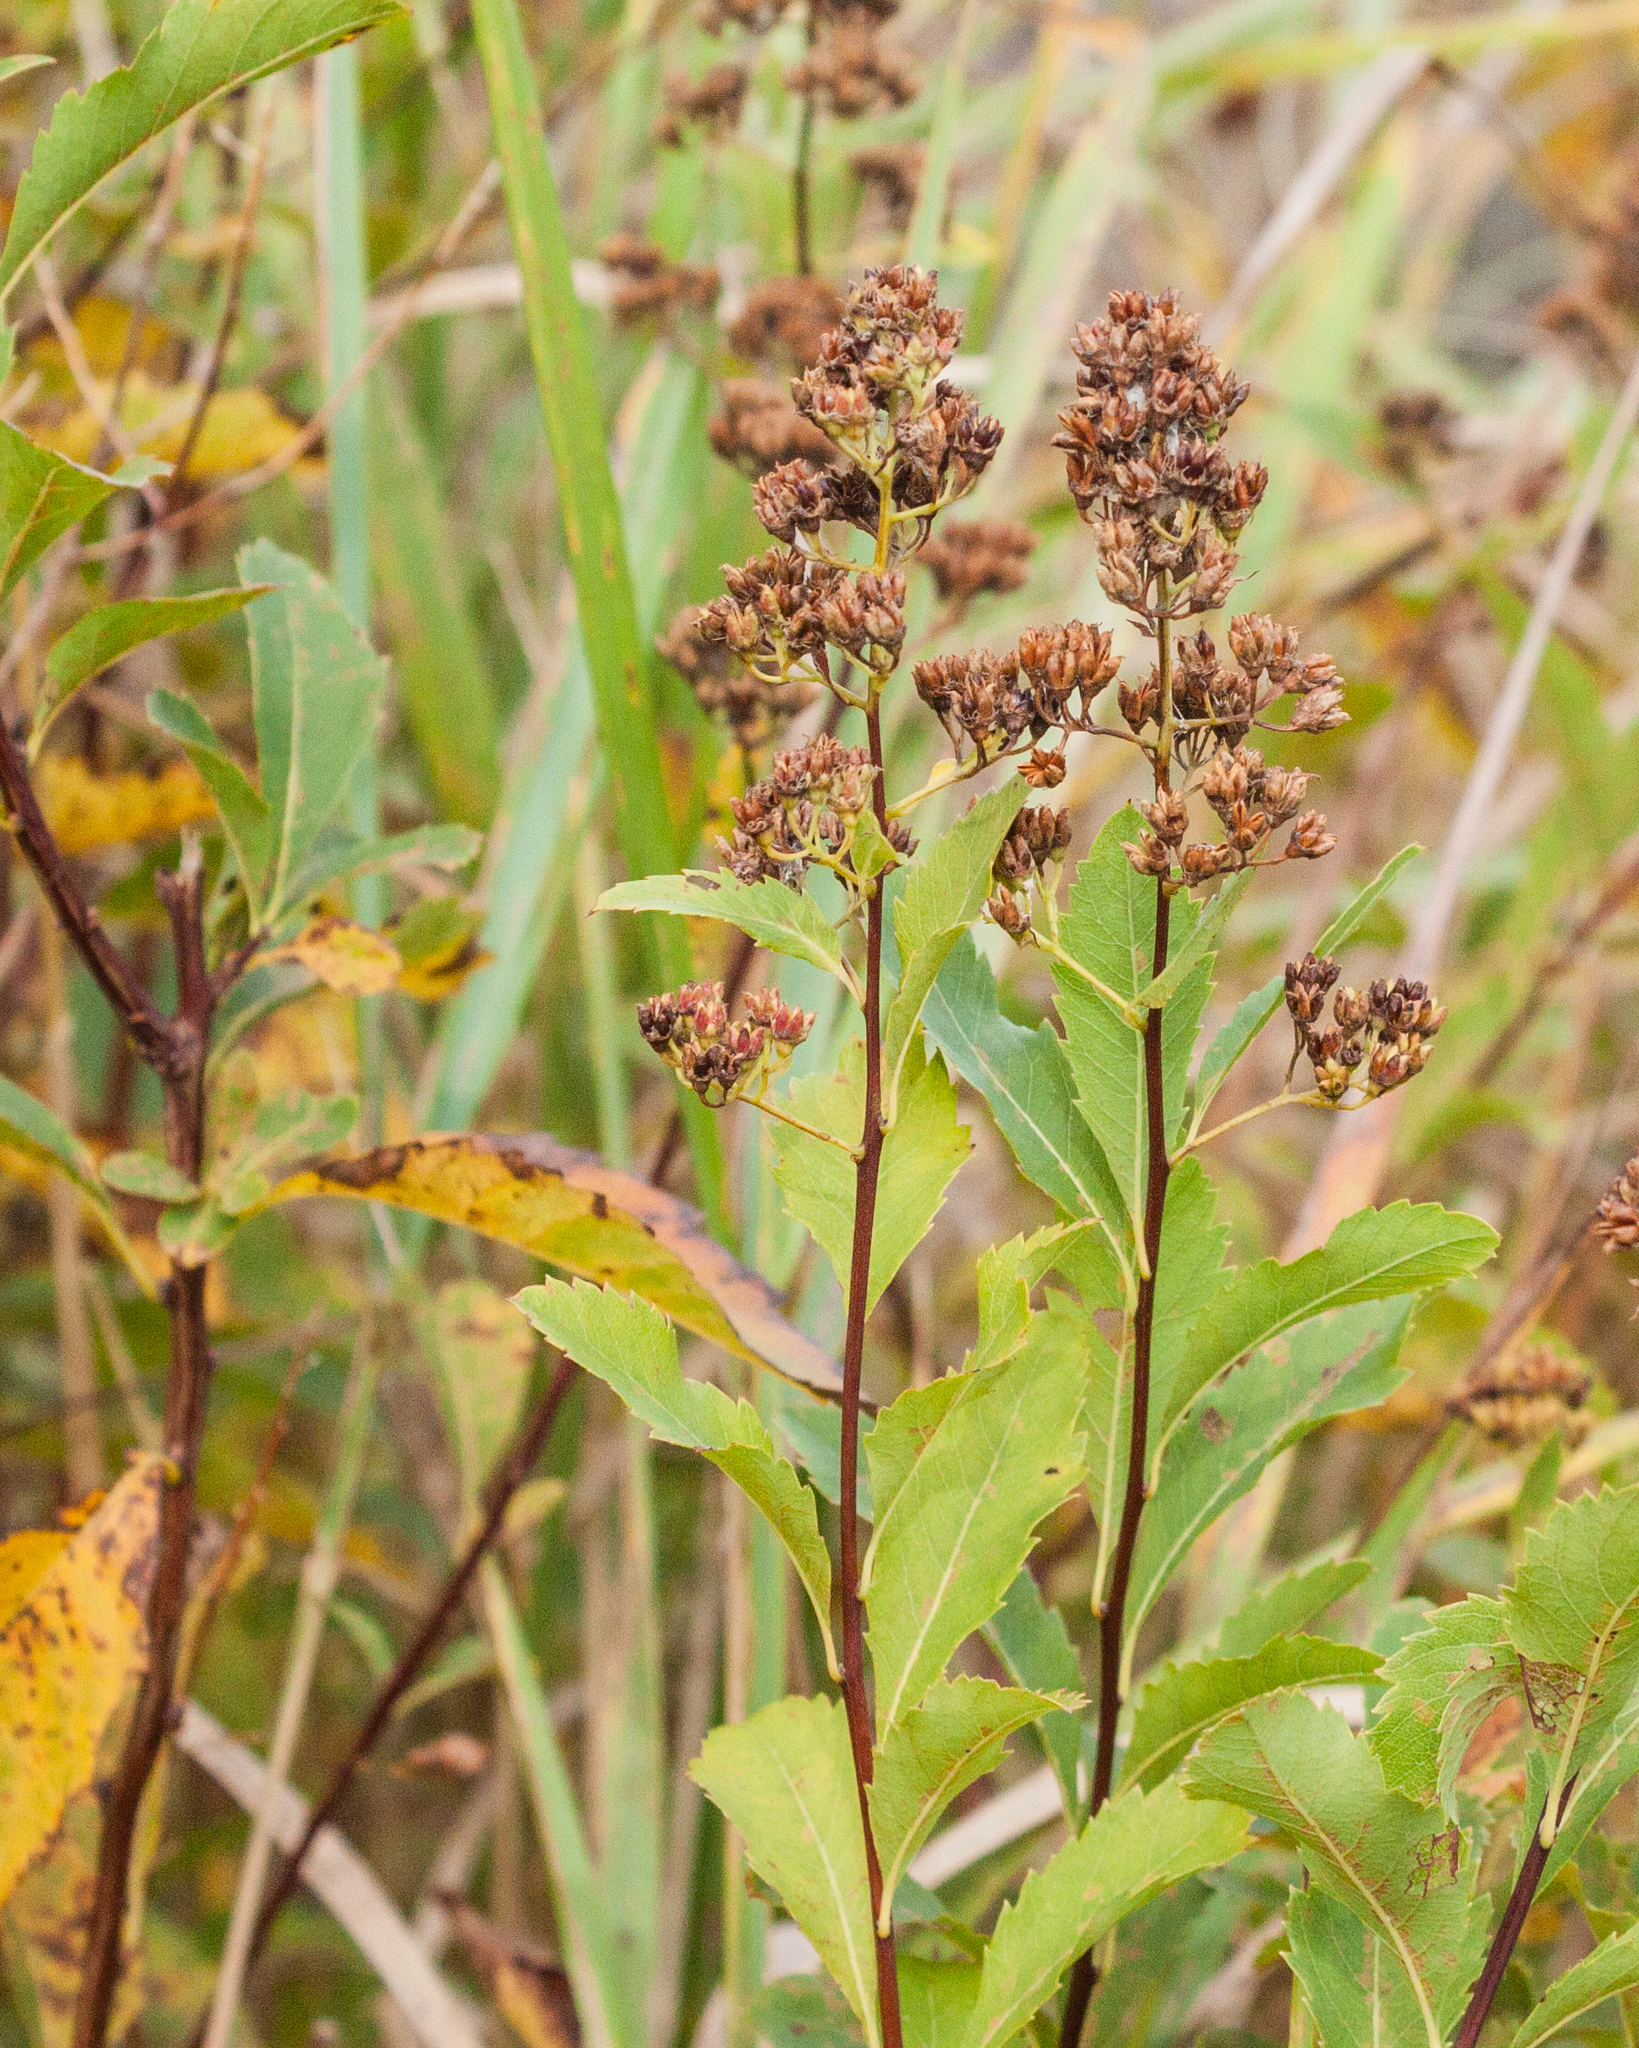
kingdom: Plantae
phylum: Tracheophyta
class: Magnoliopsida
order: Rosales
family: Rosaceae
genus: Spiraea
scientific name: Spiraea alba
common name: Pale bridewort
